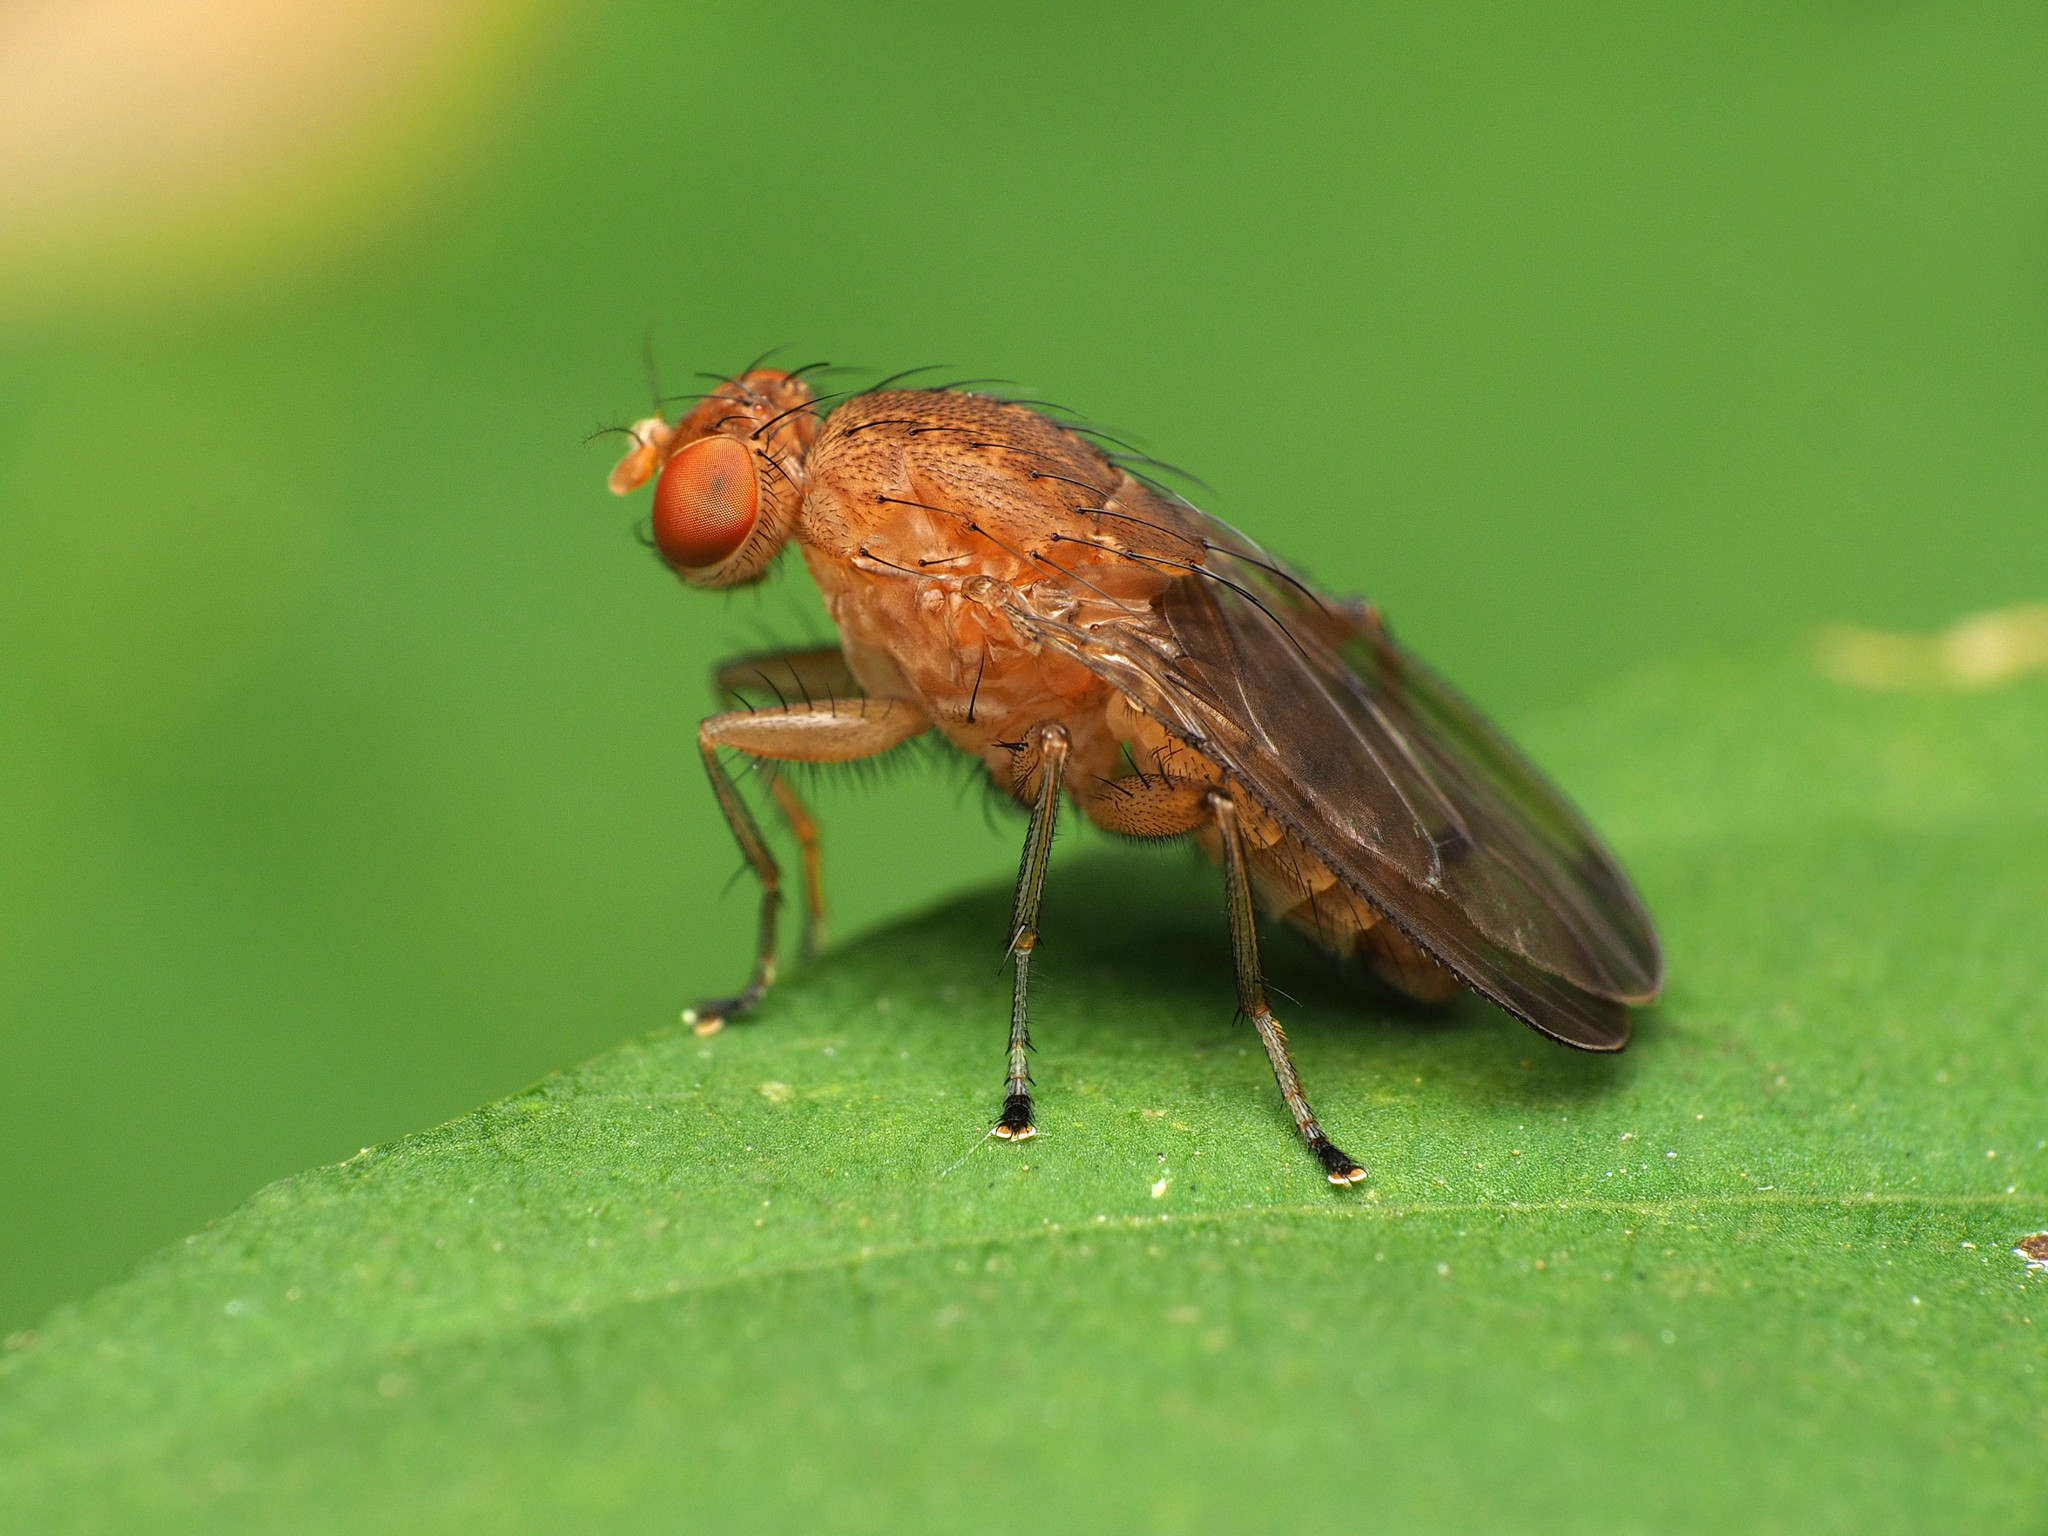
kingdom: Animalia
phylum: Arthropoda
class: Insecta
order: Diptera
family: Heleomyzidae
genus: Suillia
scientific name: Suillia quinquepunctata
